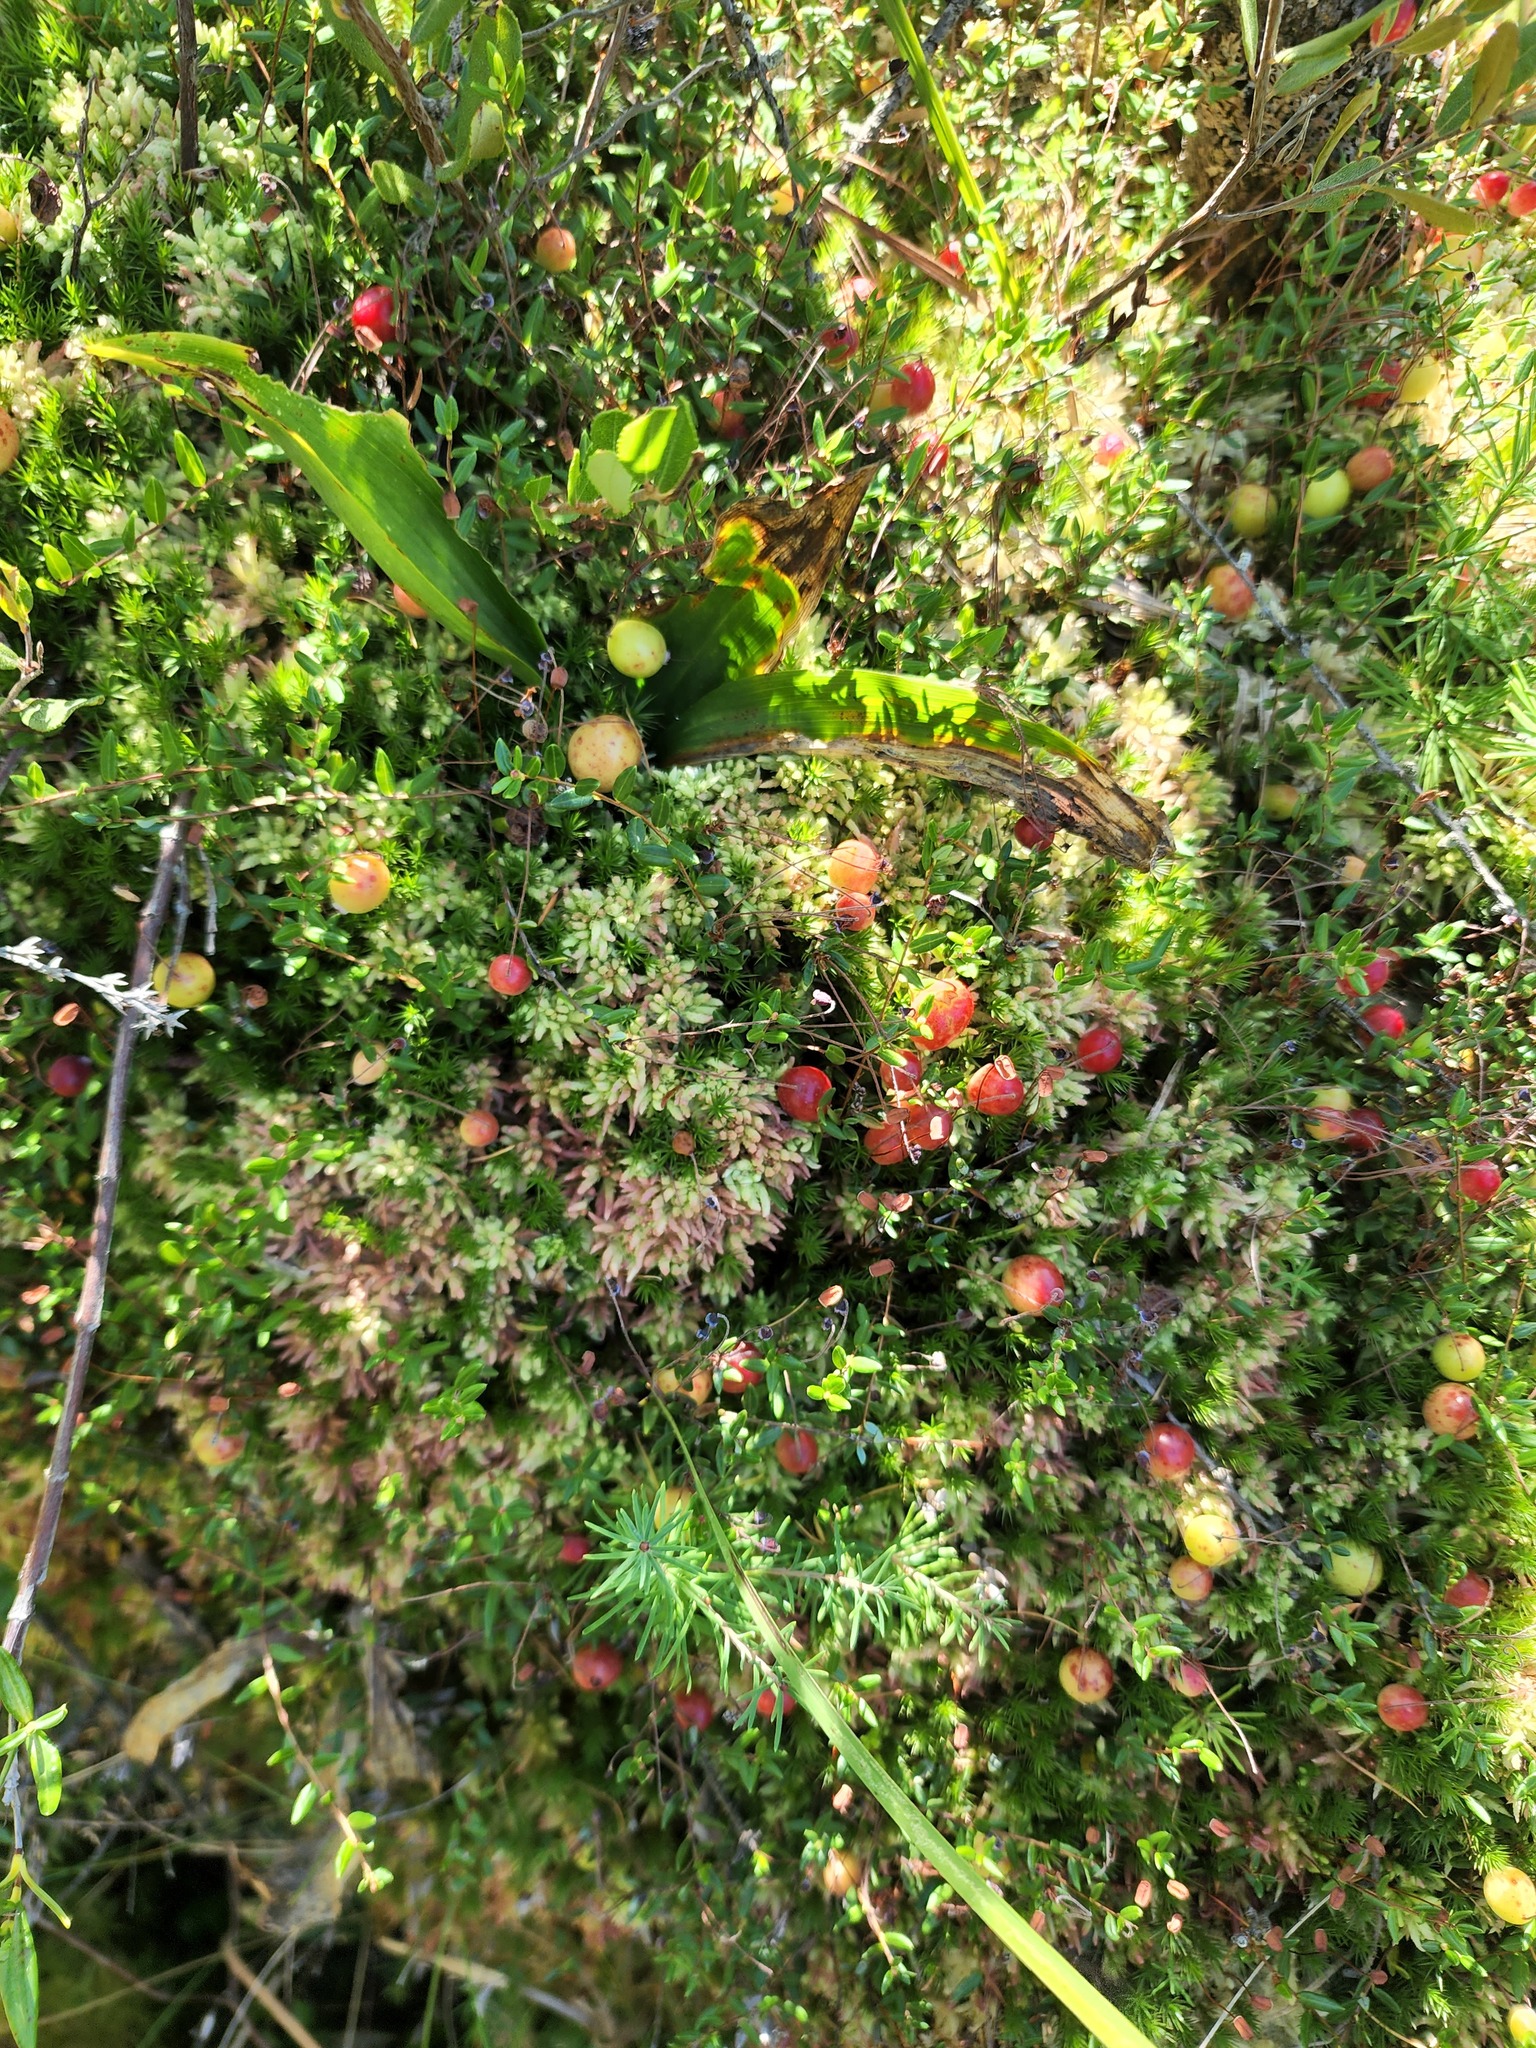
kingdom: Plantae
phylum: Tracheophyta
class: Magnoliopsida
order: Ericales
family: Ericaceae
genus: Vaccinium
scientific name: Vaccinium oxycoccos
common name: Cranberry
